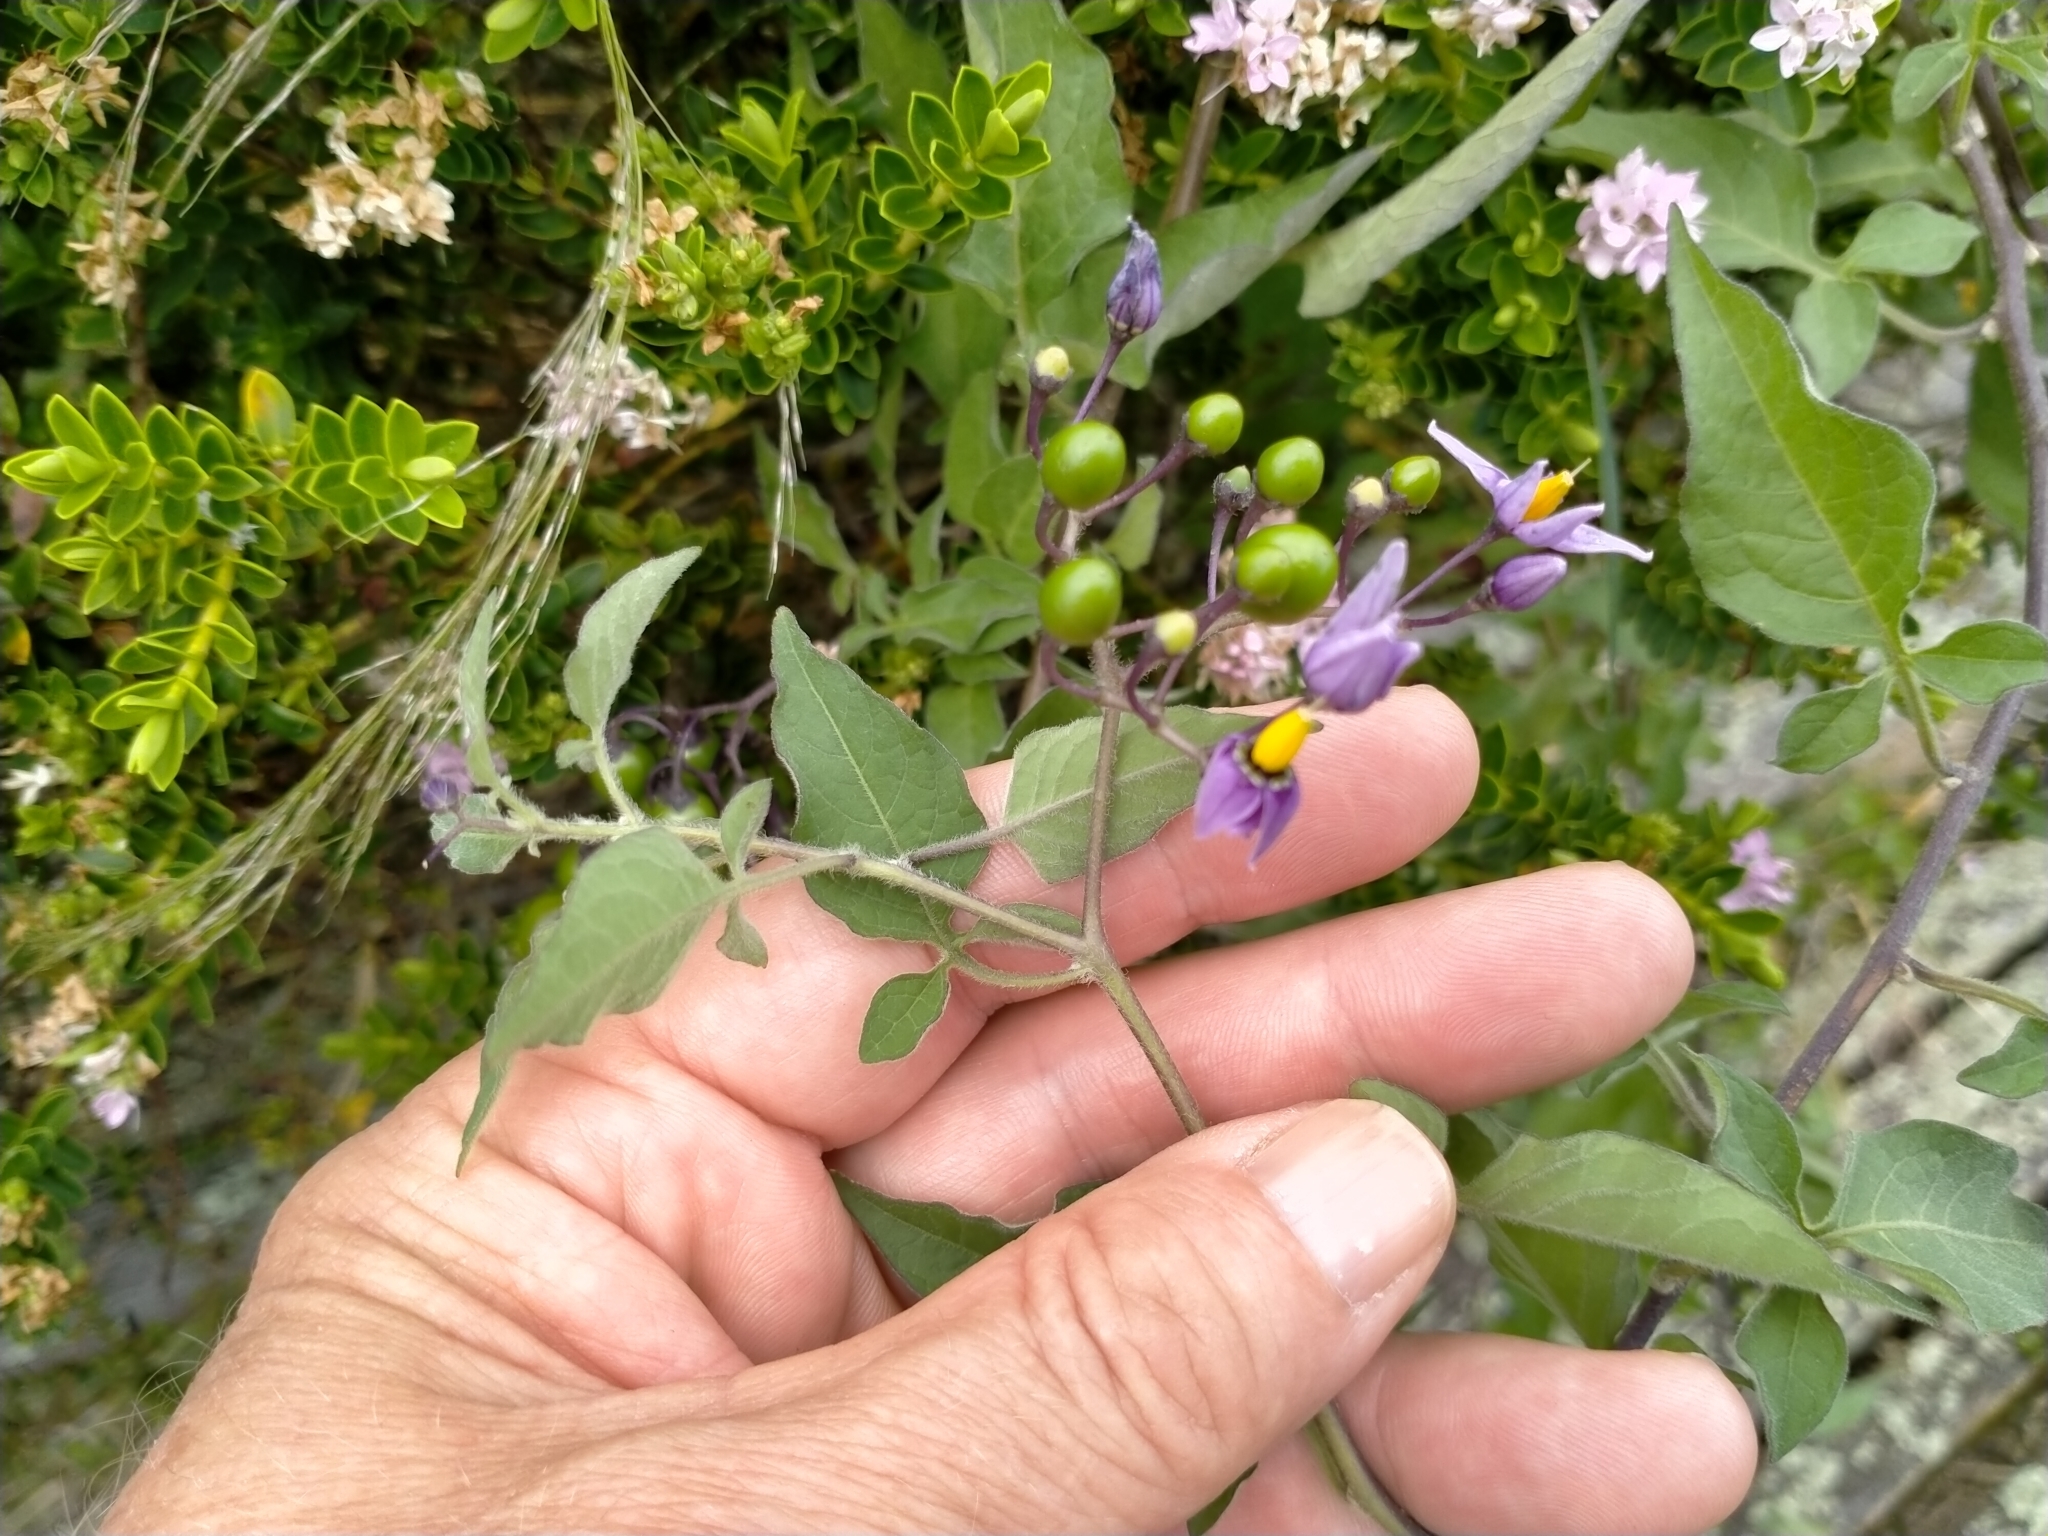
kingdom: Plantae
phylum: Tracheophyta
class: Magnoliopsida
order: Solanales
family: Solanaceae
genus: Solanum
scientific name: Solanum dulcamara
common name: Climbing nightshade
